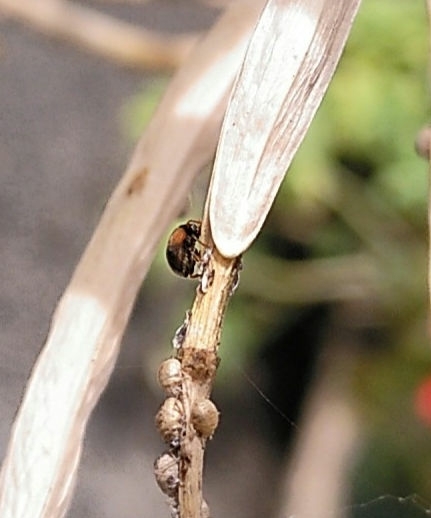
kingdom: Animalia
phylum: Arthropoda
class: Insecta
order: Coleoptera
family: Coccinellidae
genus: Scymnus
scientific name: Scymnus interruptus
